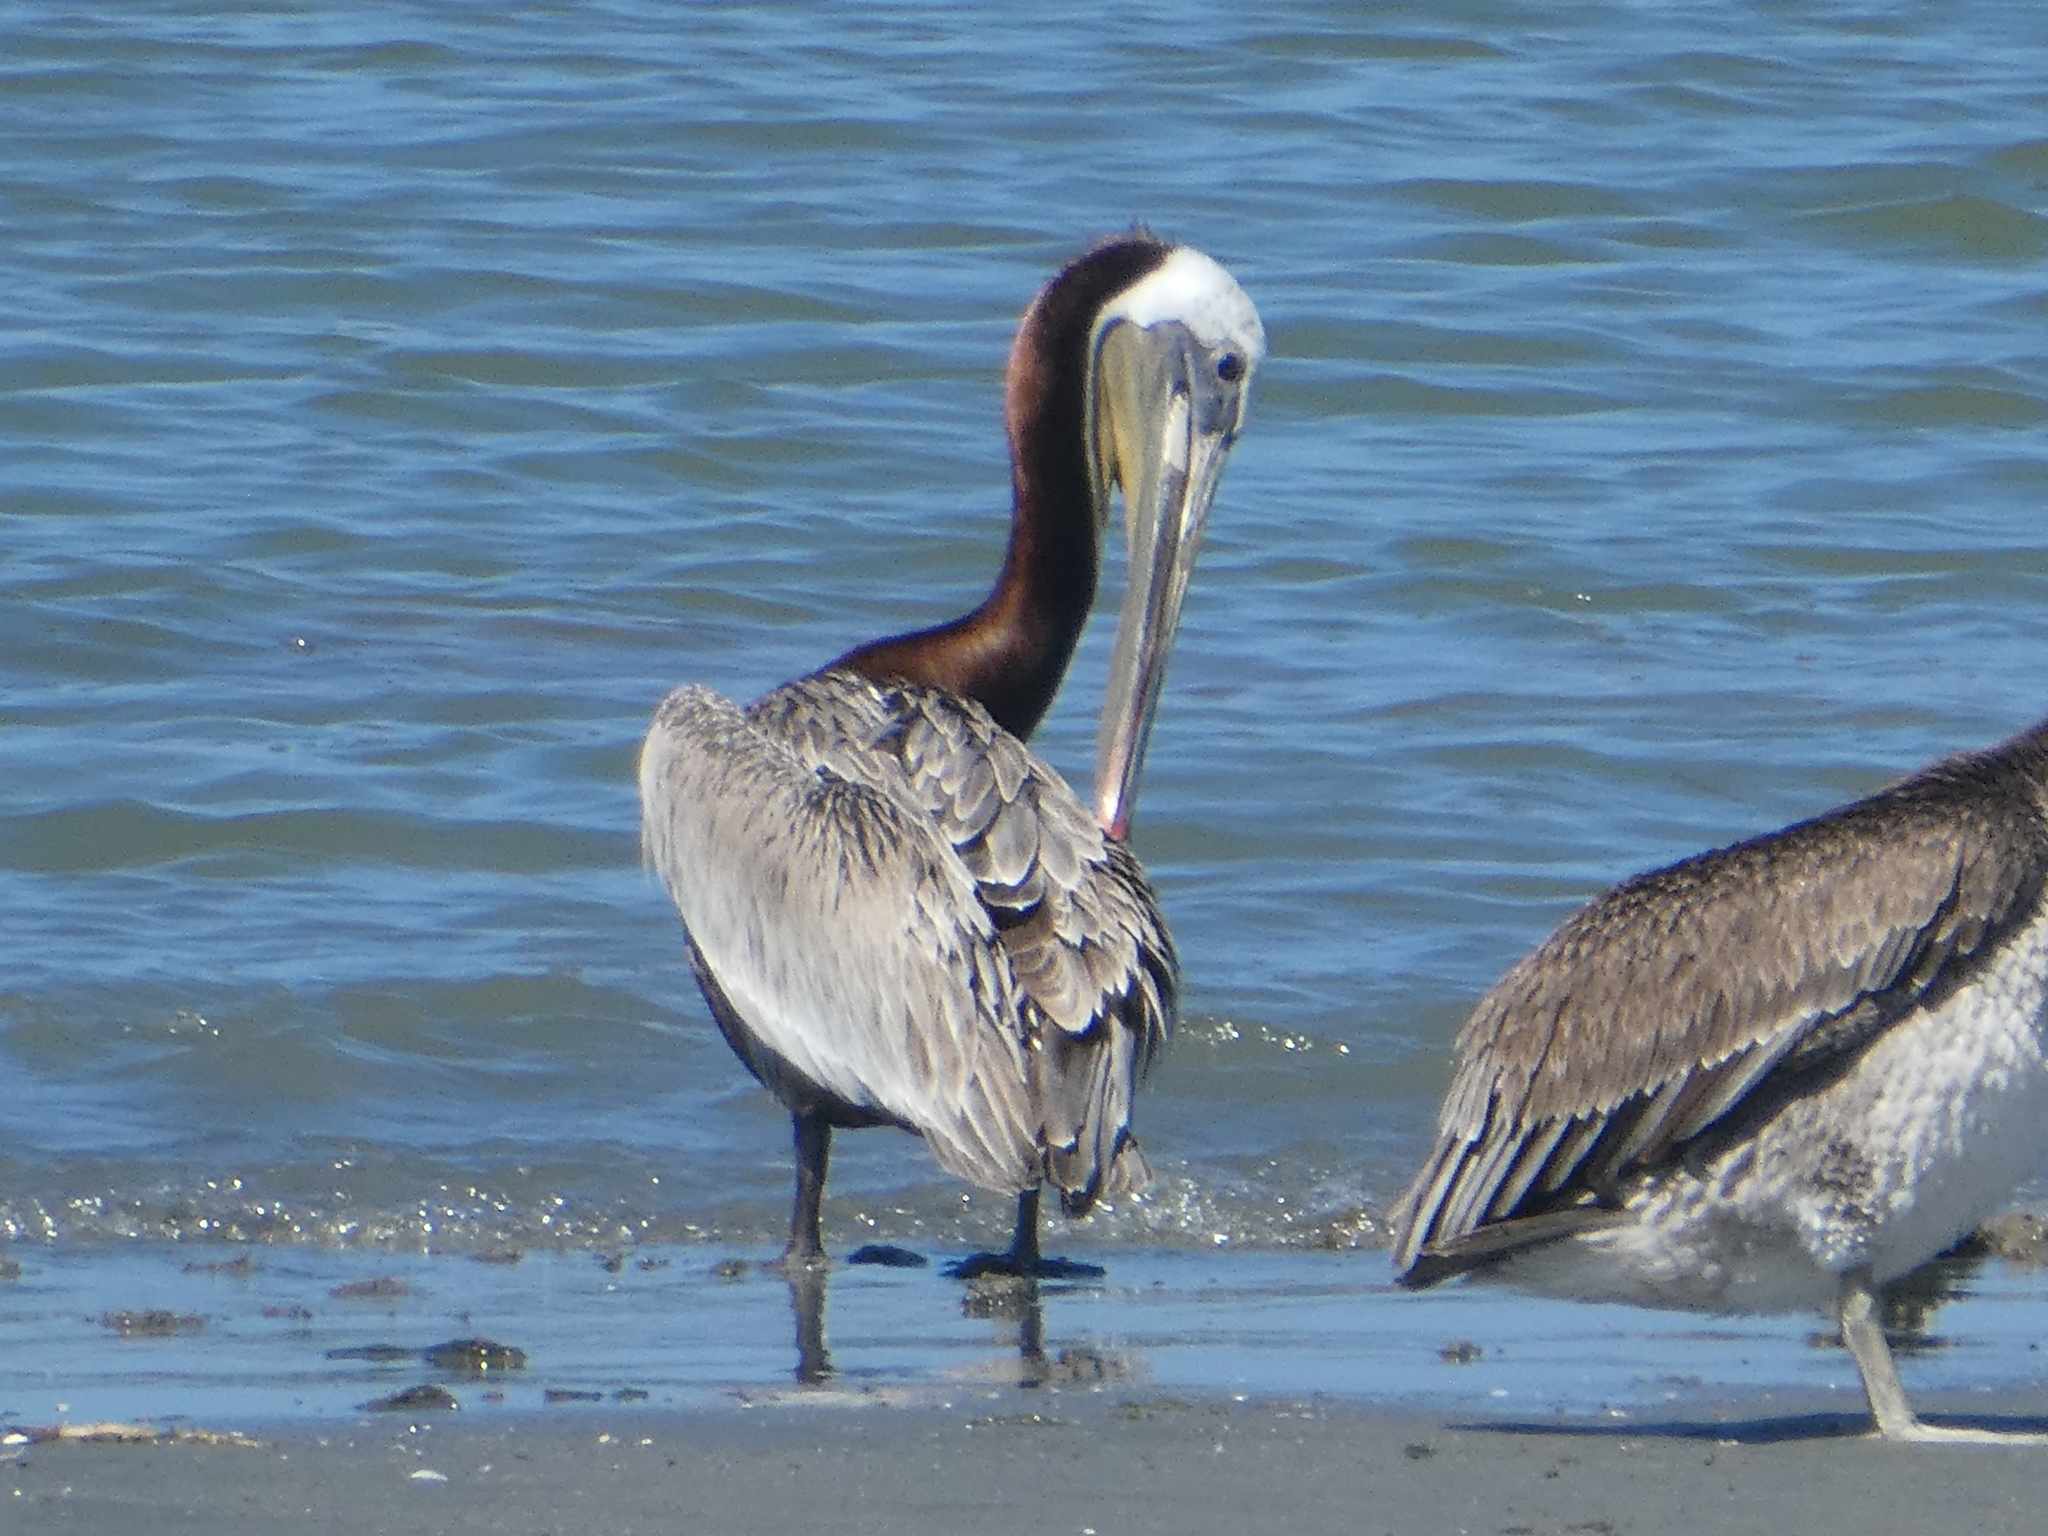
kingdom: Animalia
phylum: Chordata
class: Aves
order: Pelecaniformes
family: Pelecanidae
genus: Pelecanus
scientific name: Pelecanus occidentalis
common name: Brown pelican
